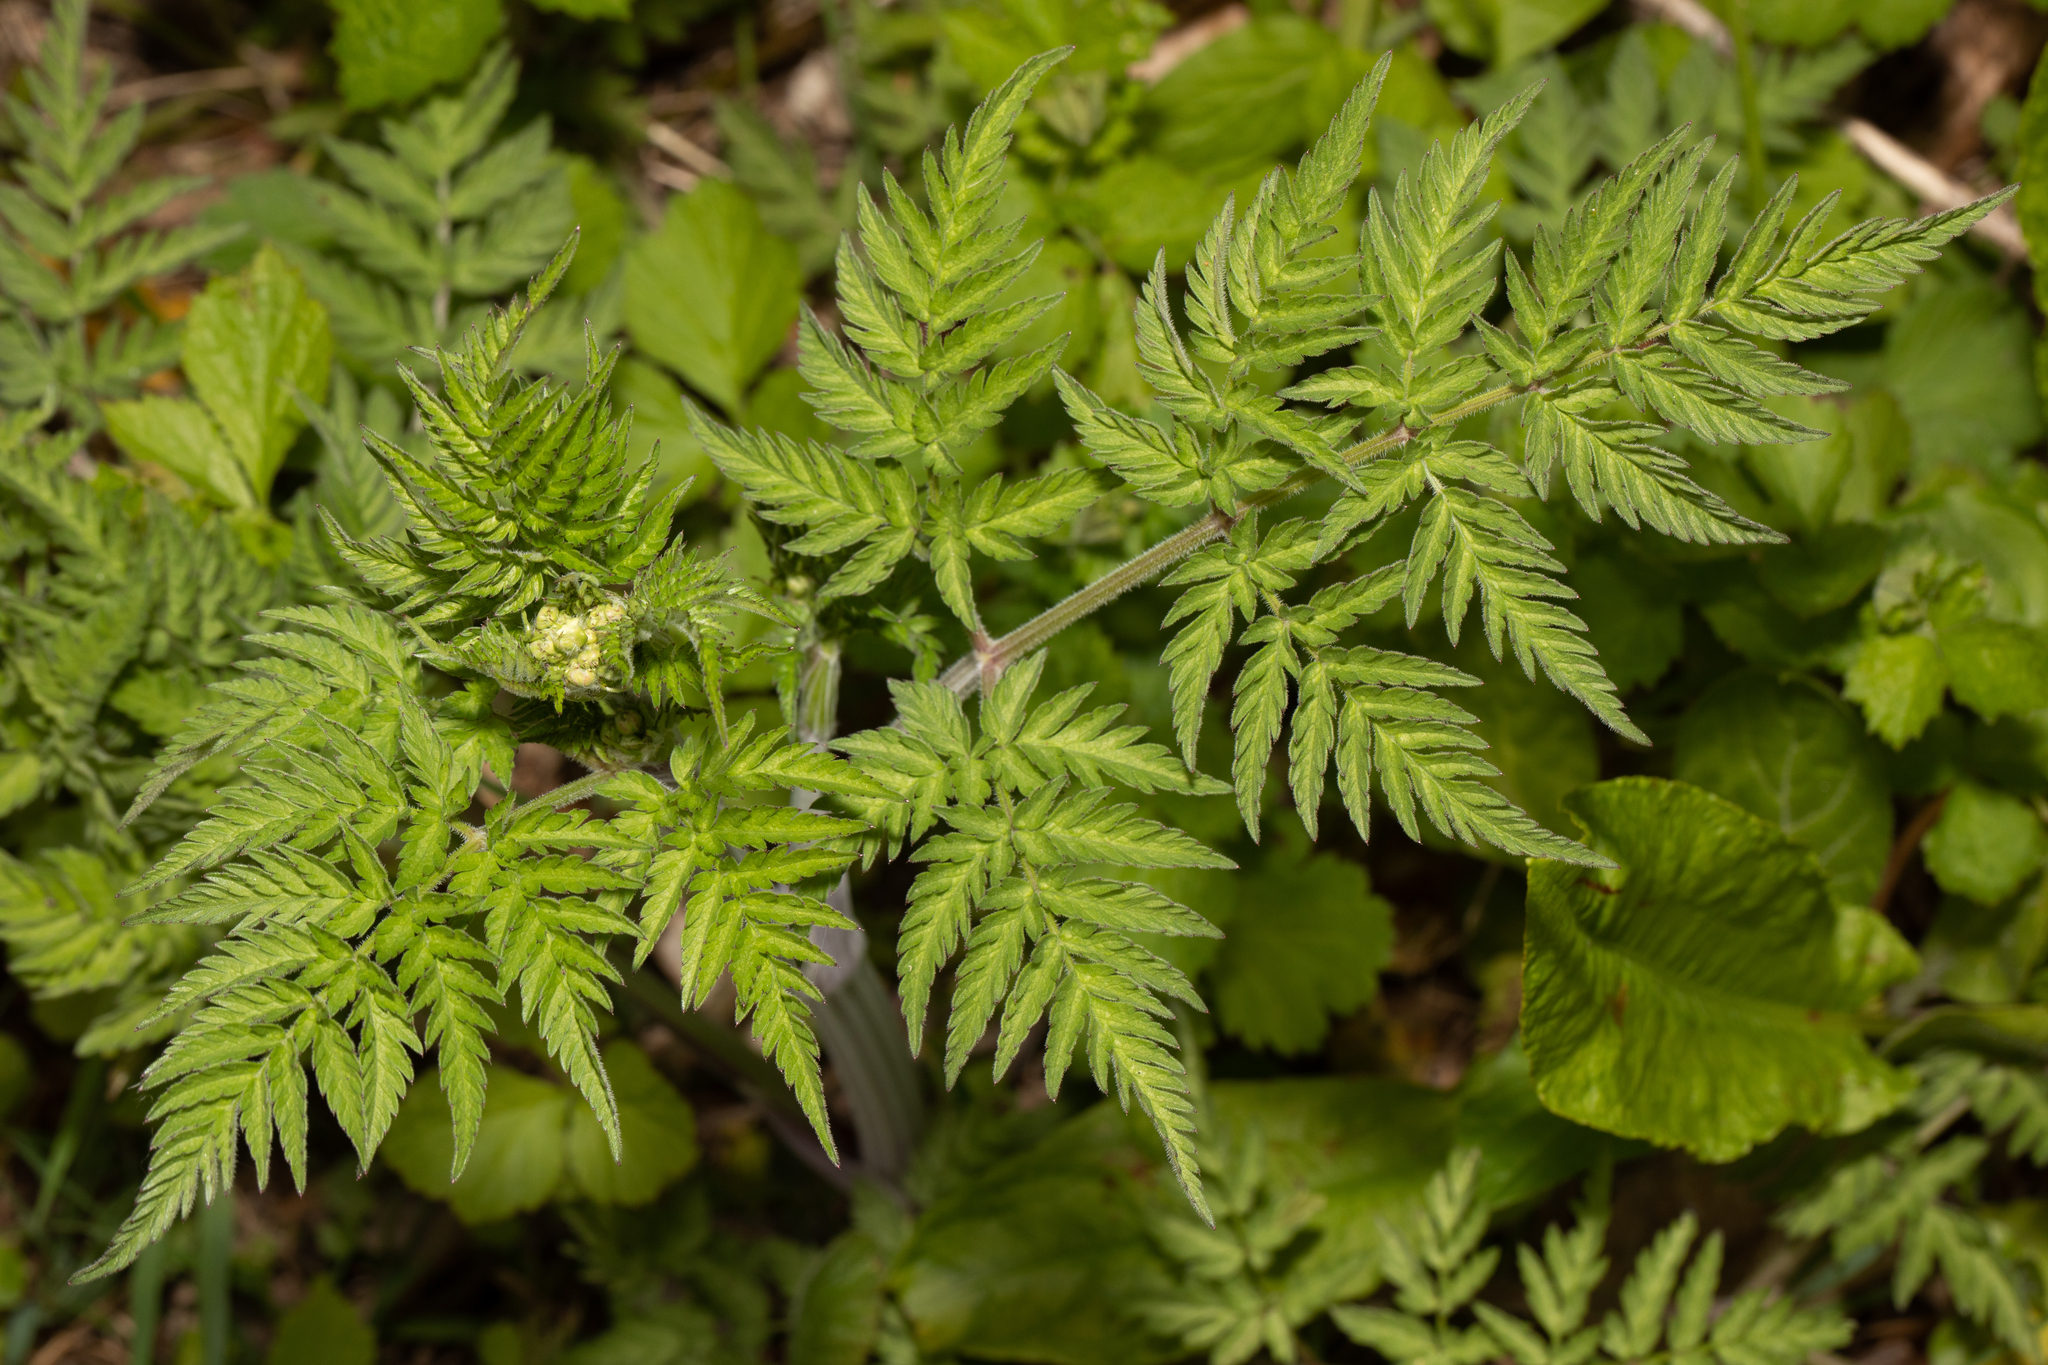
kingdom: Plantae
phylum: Tracheophyta
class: Magnoliopsida
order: Apiales
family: Apiaceae
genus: Anthriscus
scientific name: Anthriscus sylvestris
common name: Cow parsley
